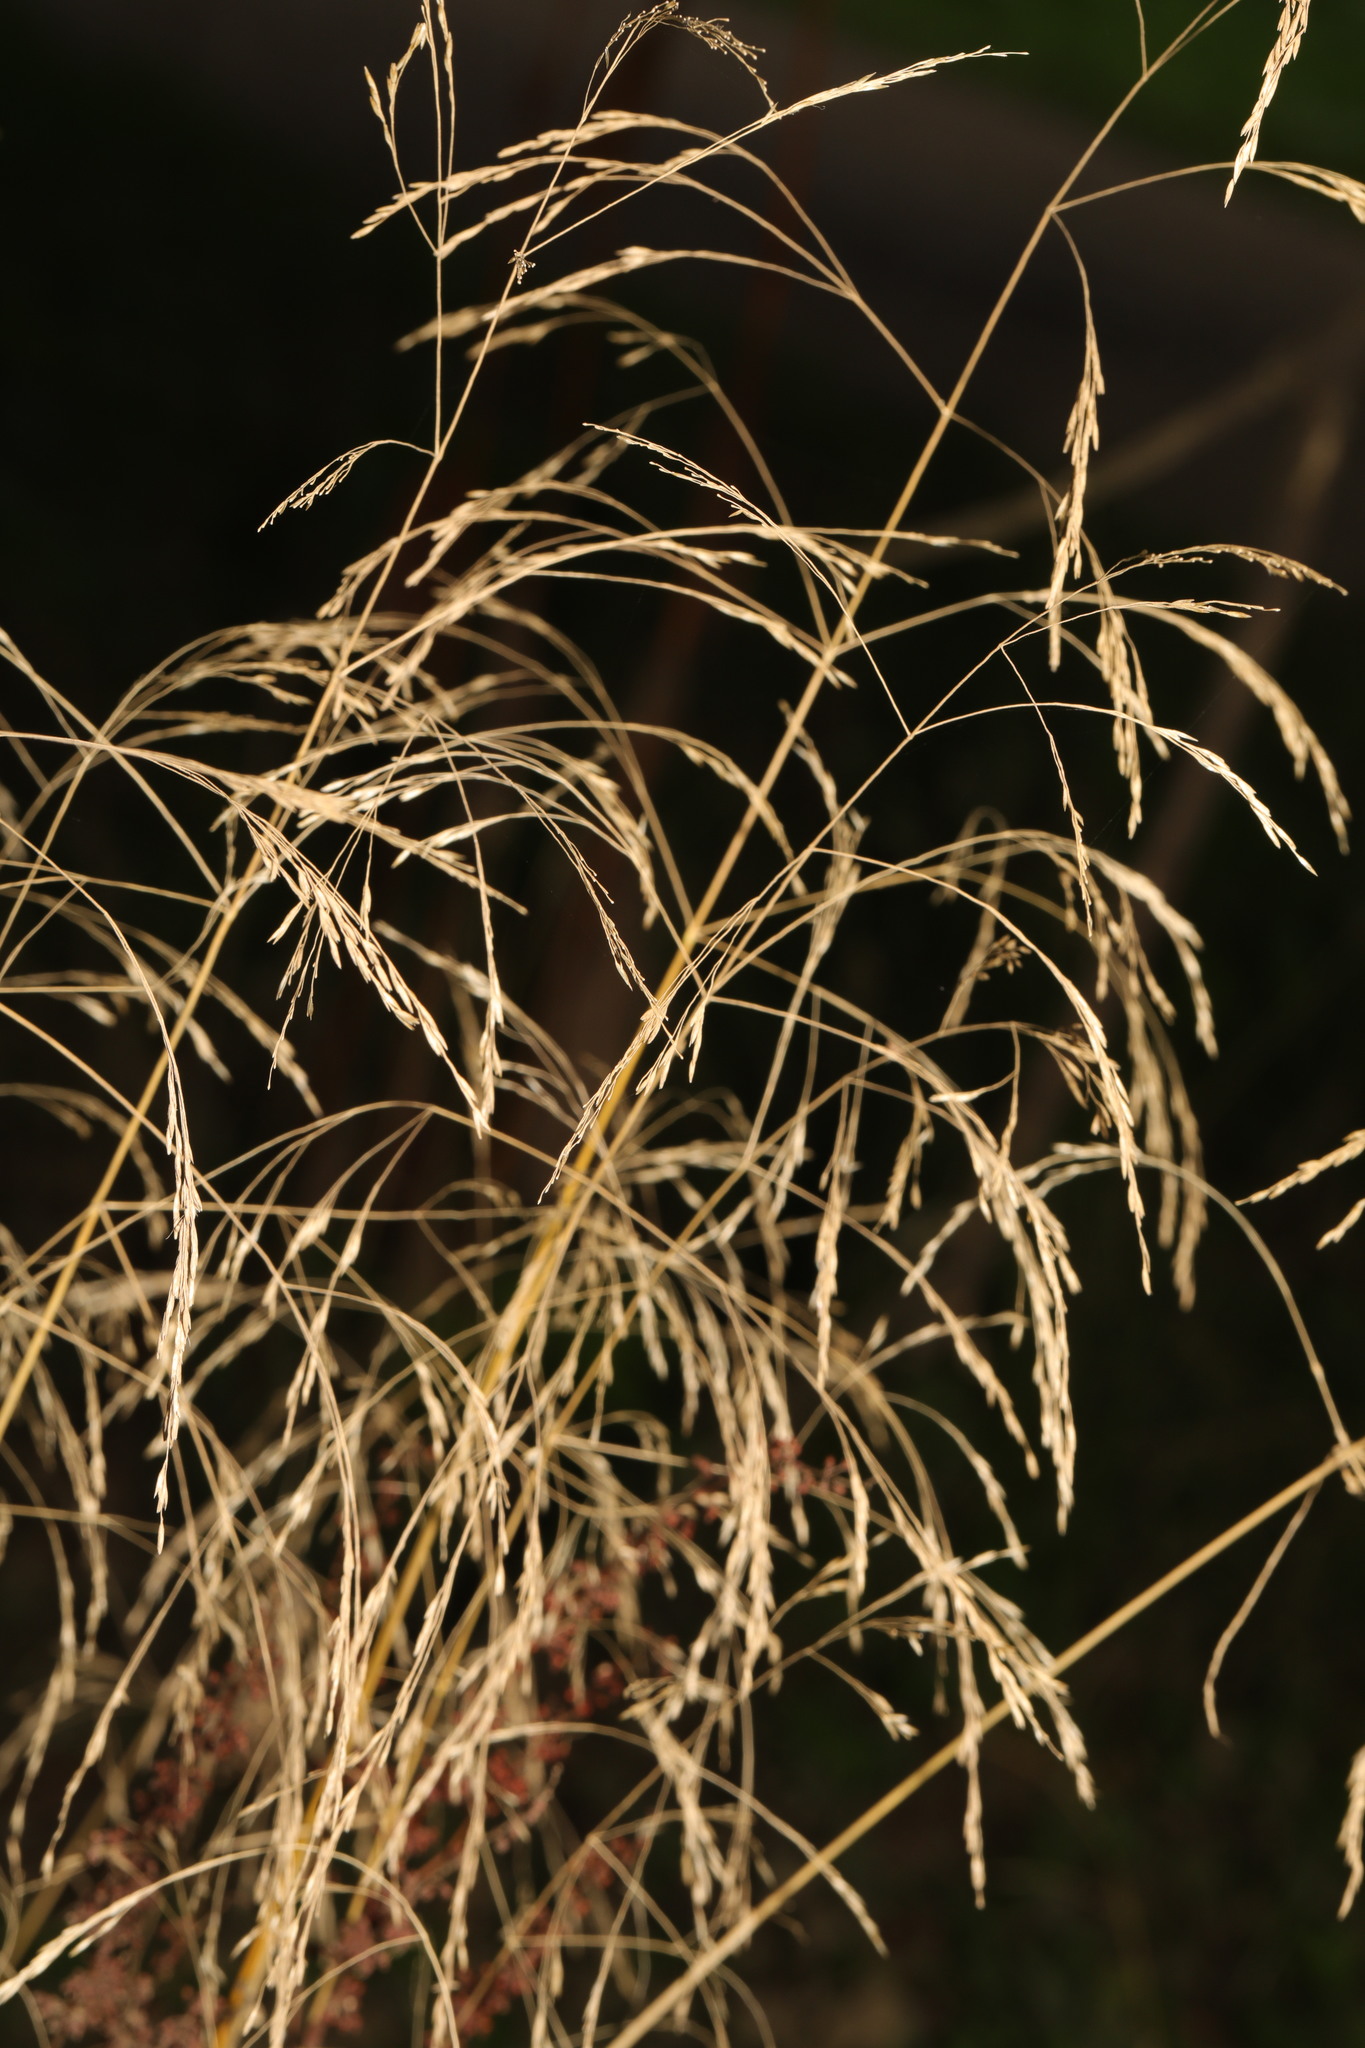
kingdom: Plantae
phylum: Tracheophyta
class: Liliopsida
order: Poales
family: Poaceae
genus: Deschampsia
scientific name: Deschampsia cespitosa
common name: Tufted hair-grass
